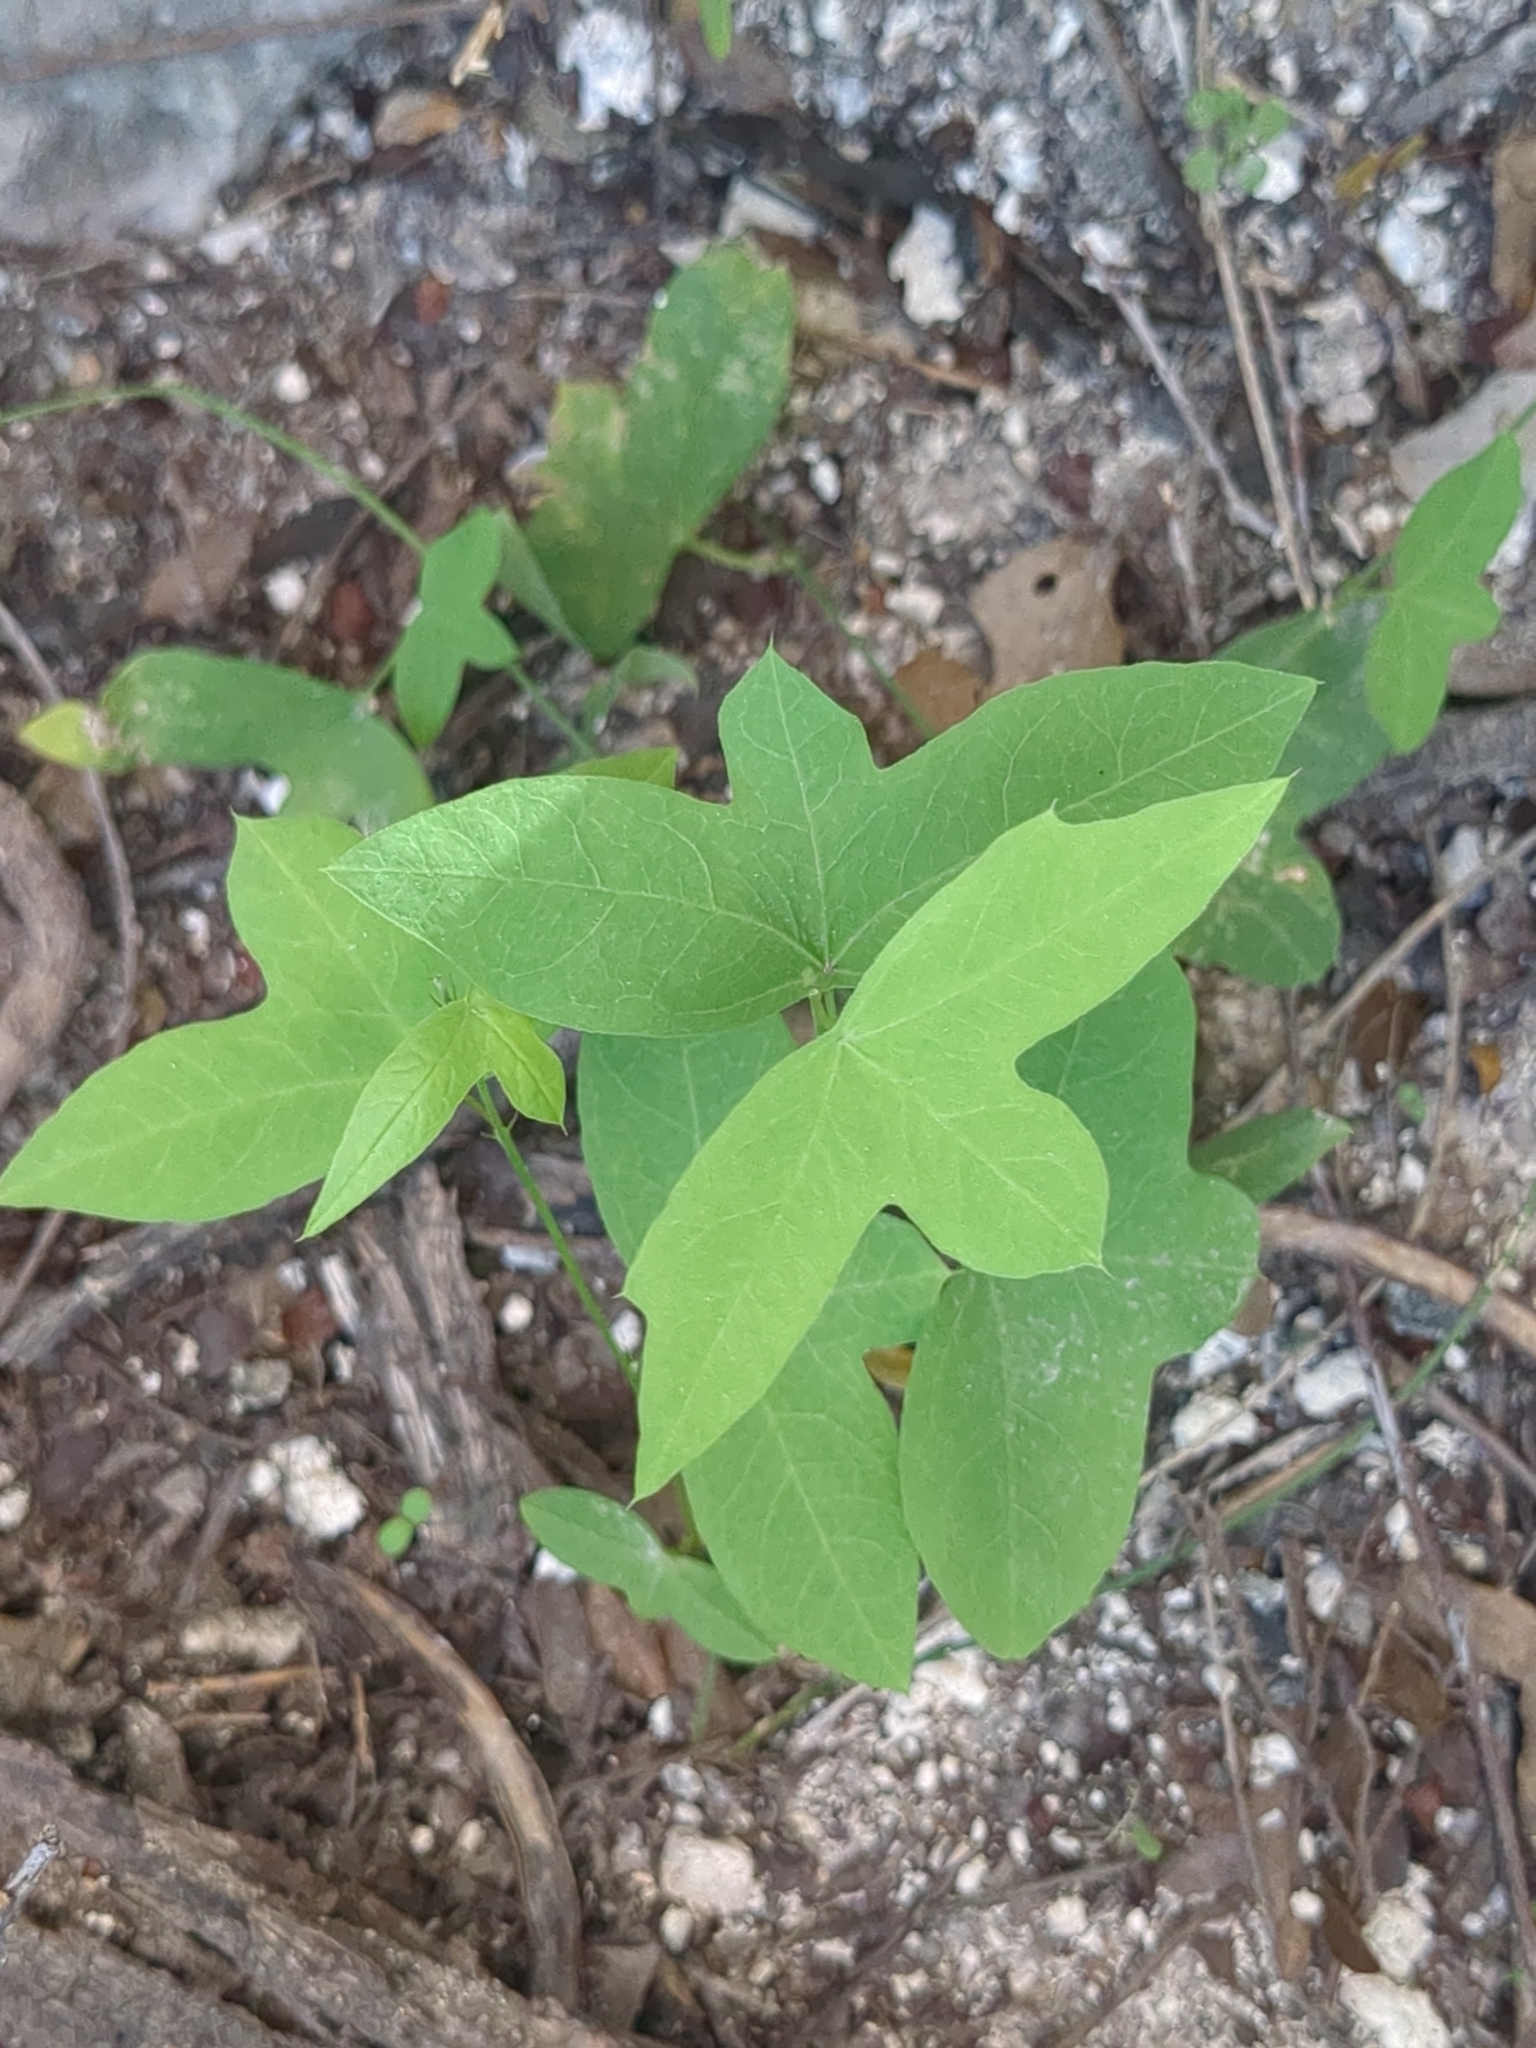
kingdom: Plantae
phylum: Tracheophyta
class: Magnoliopsida
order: Malpighiales
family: Passifloraceae
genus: Passiflora
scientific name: Passiflora tenuiloba
